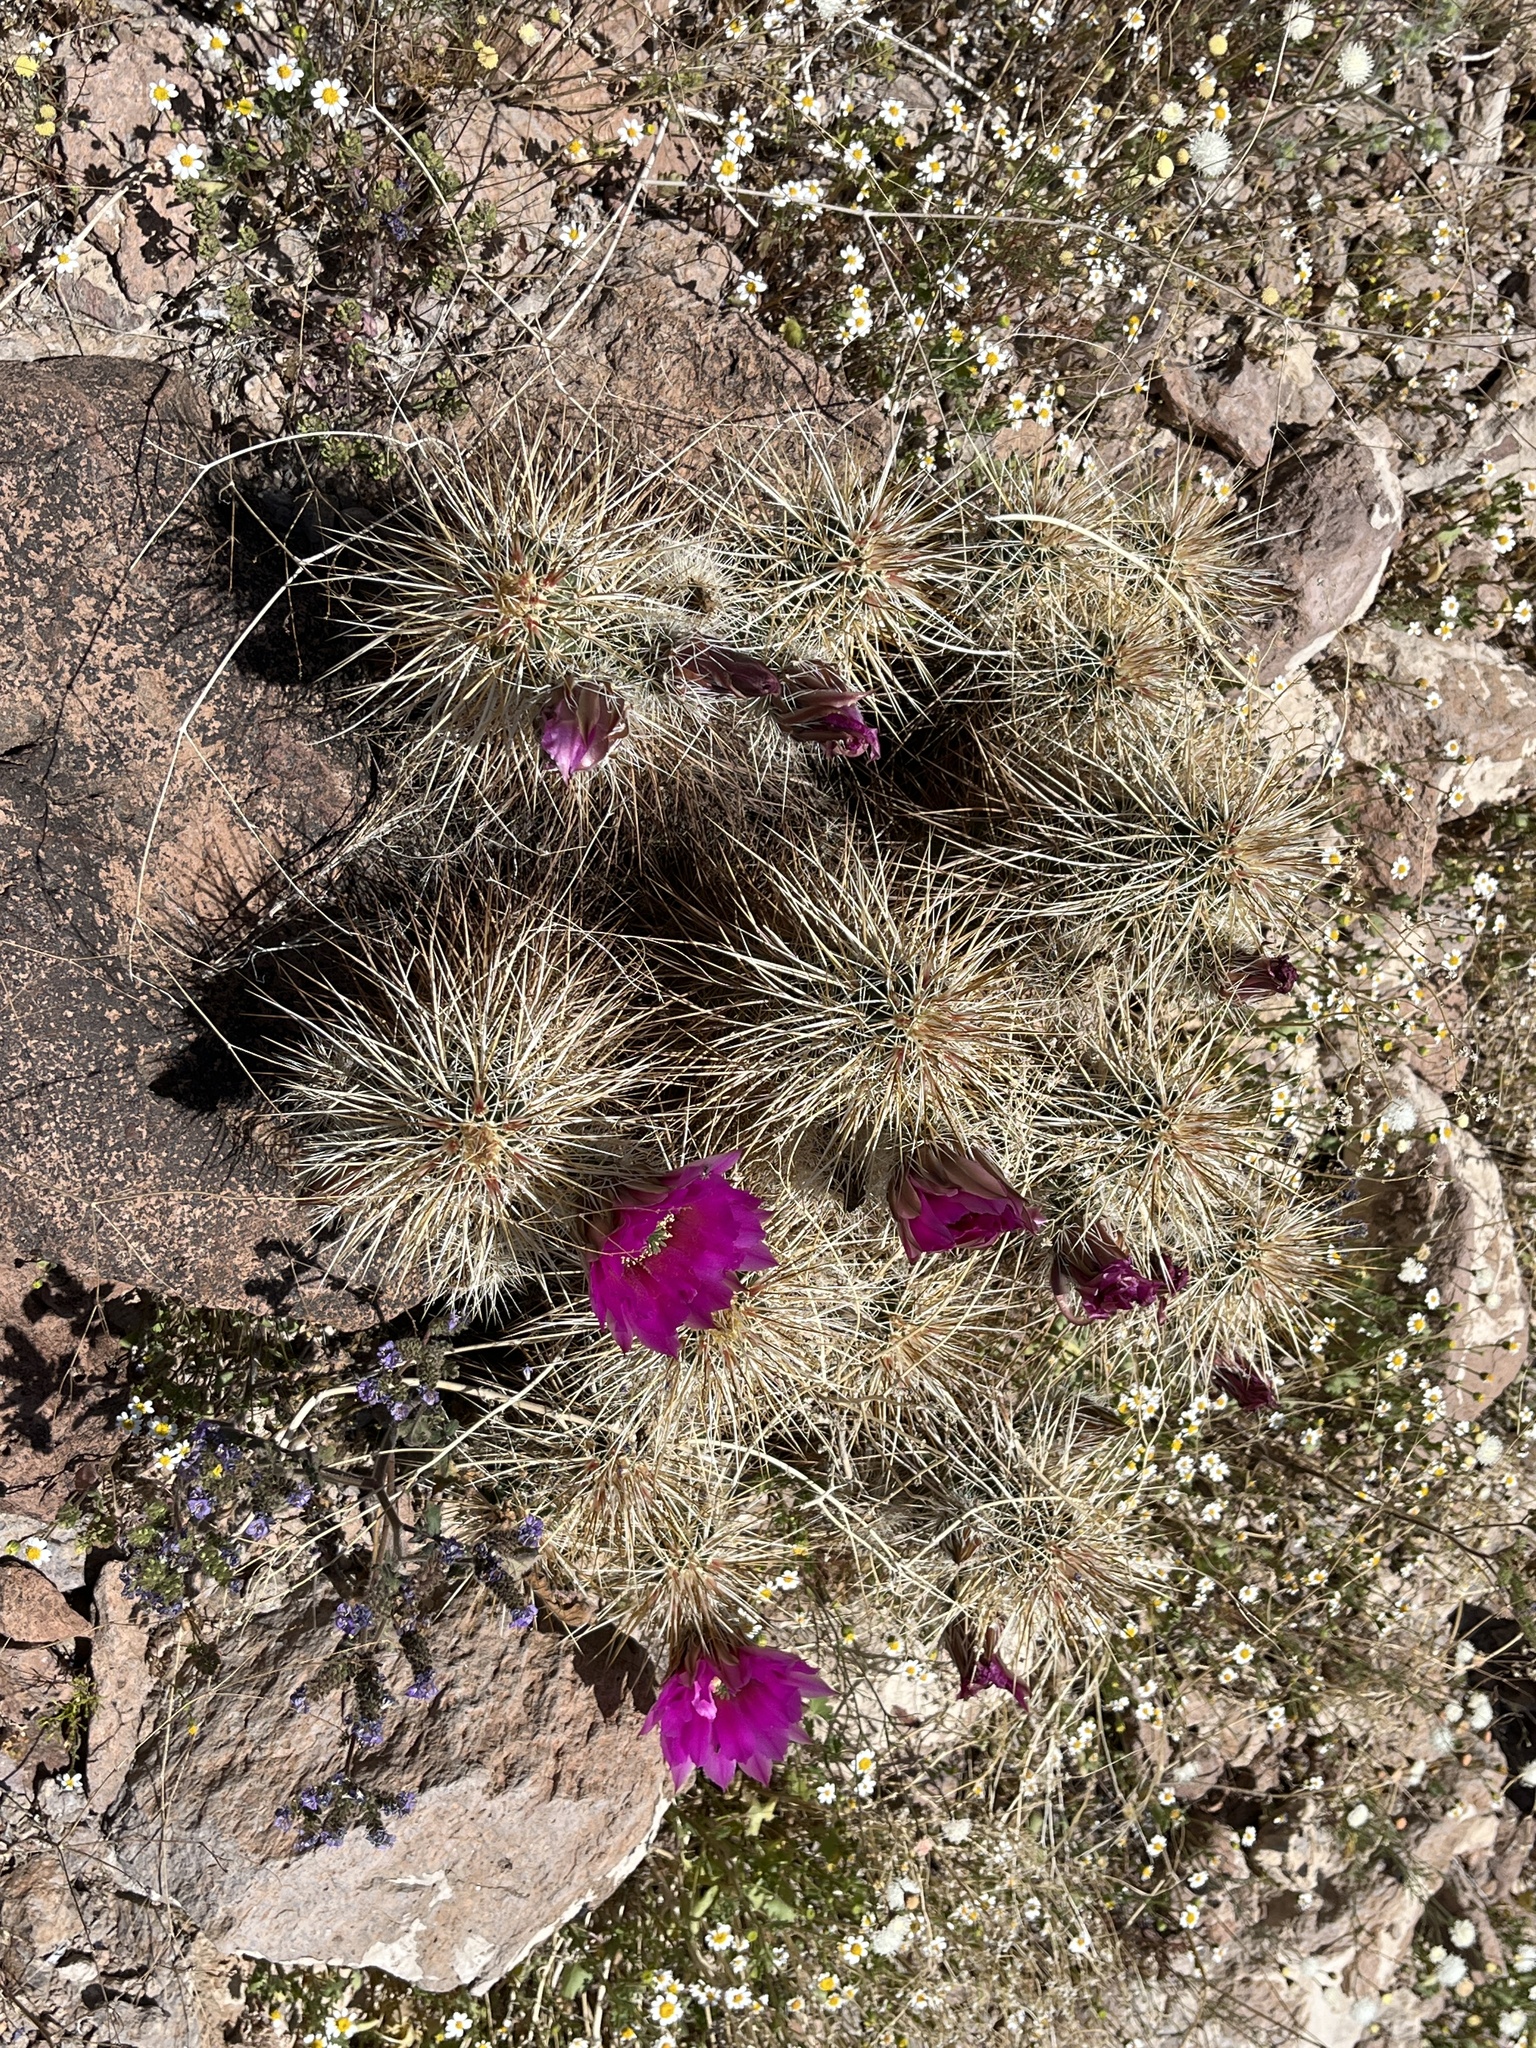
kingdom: Plantae
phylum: Tracheophyta
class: Magnoliopsida
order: Caryophyllales
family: Cactaceae
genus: Echinocereus
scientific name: Echinocereus engelmannii
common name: Engelmann's hedgehog cactus
